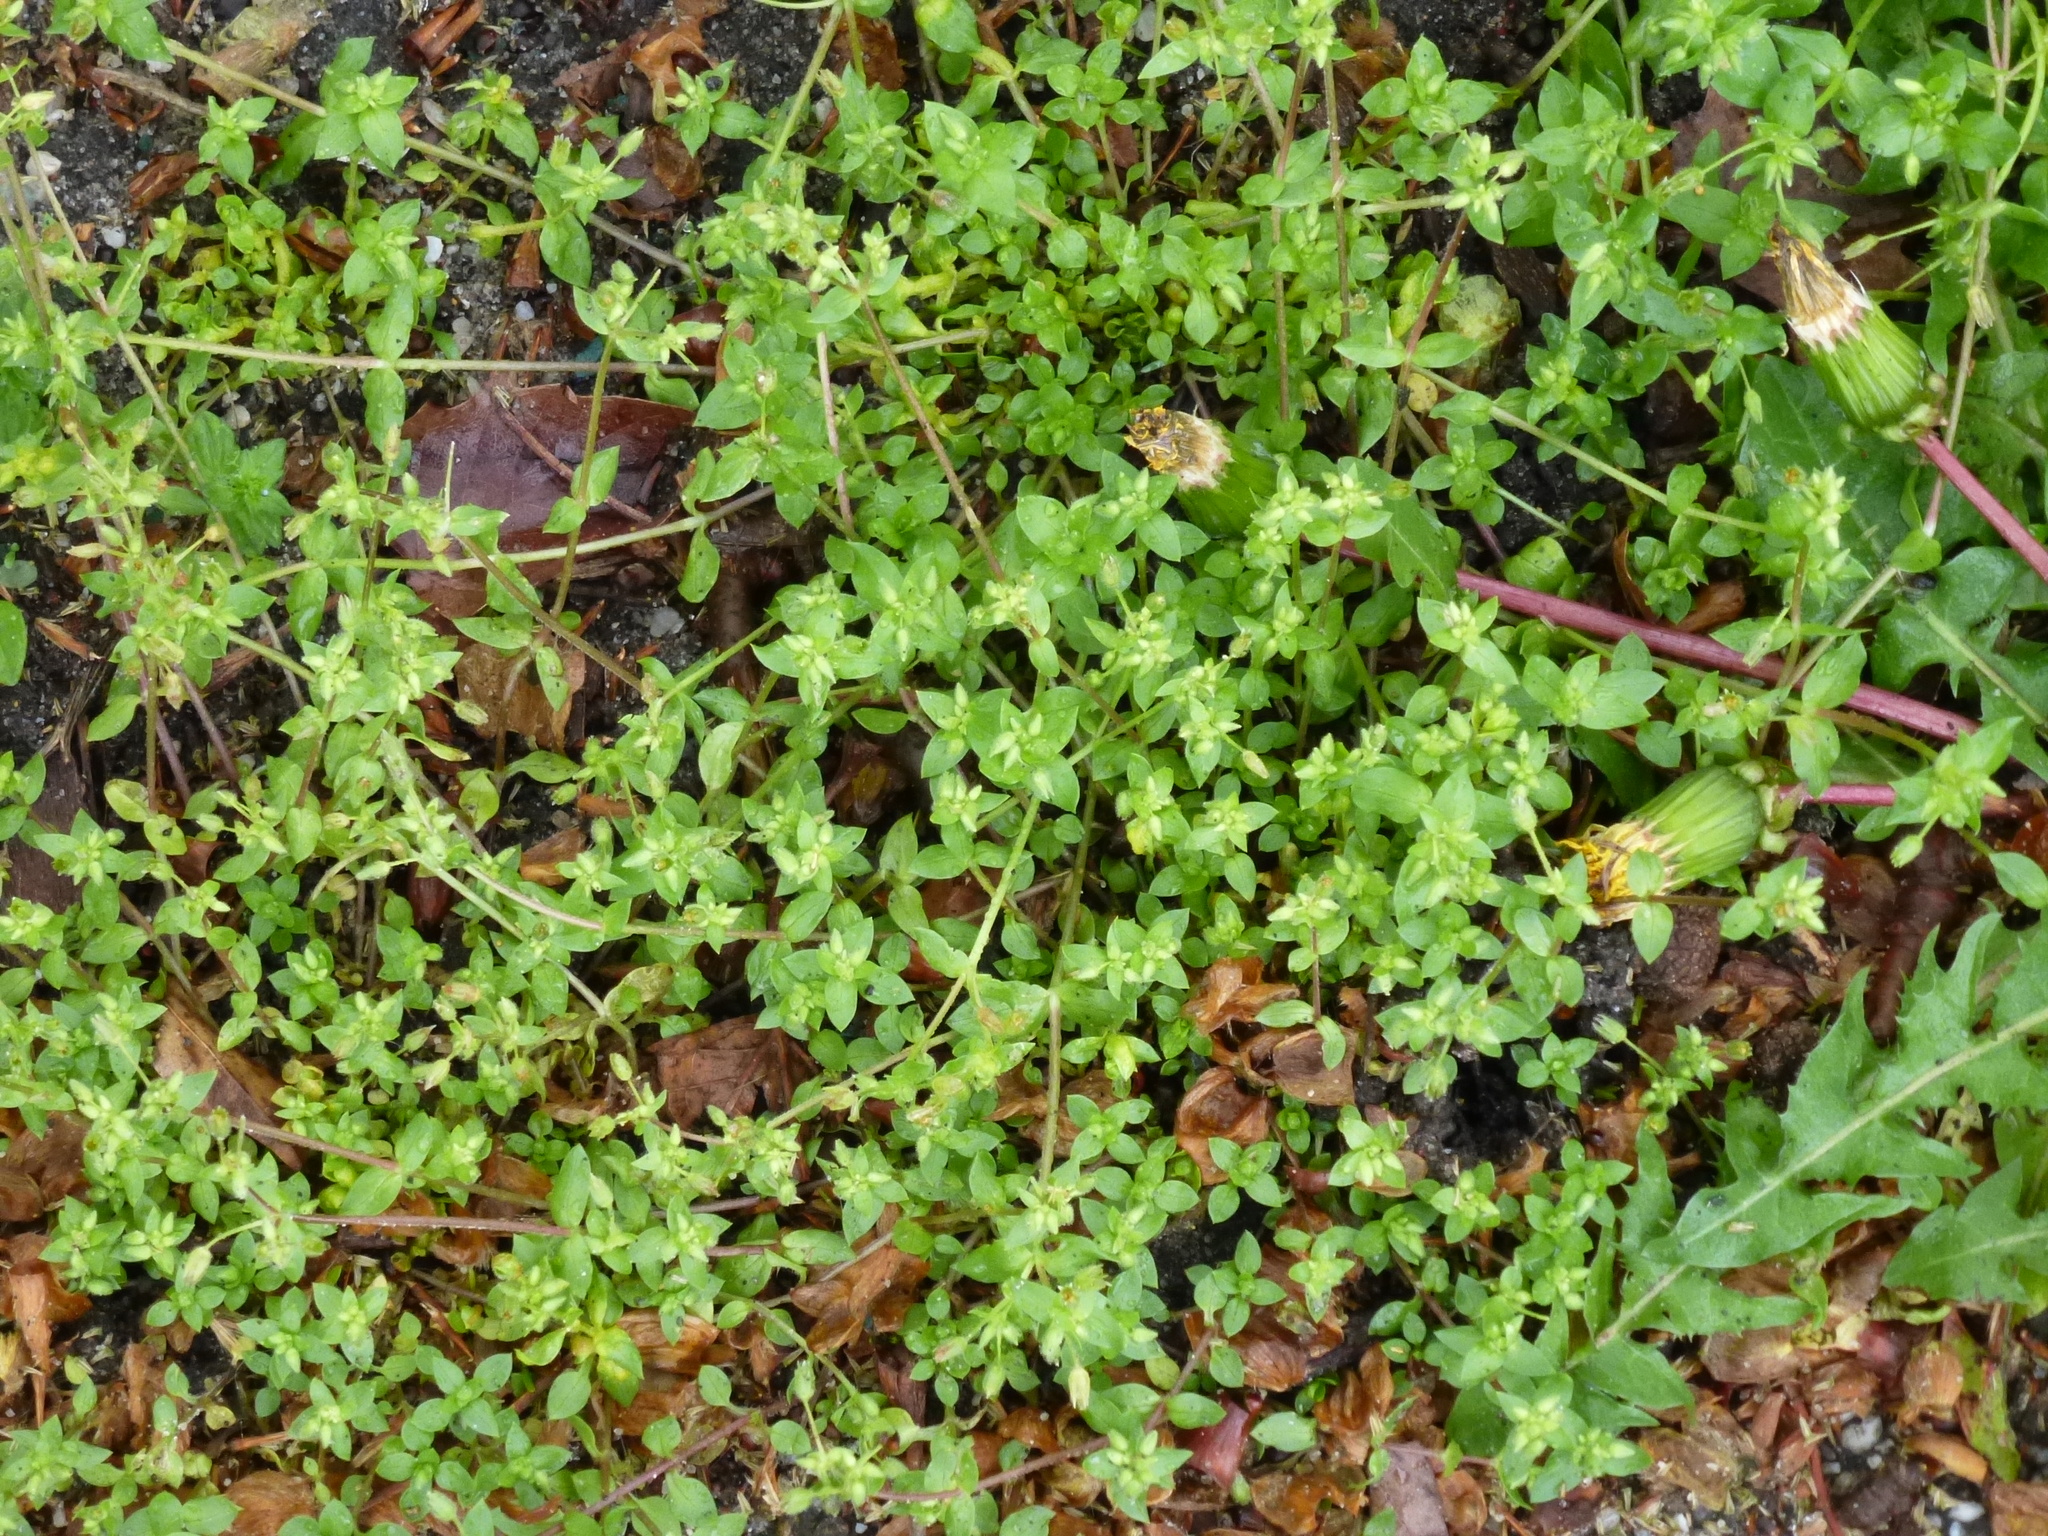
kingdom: Plantae
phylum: Tracheophyta
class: Magnoliopsida
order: Caryophyllales
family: Caryophyllaceae
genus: Stellaria
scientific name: Stellaria media
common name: Common chickweed
